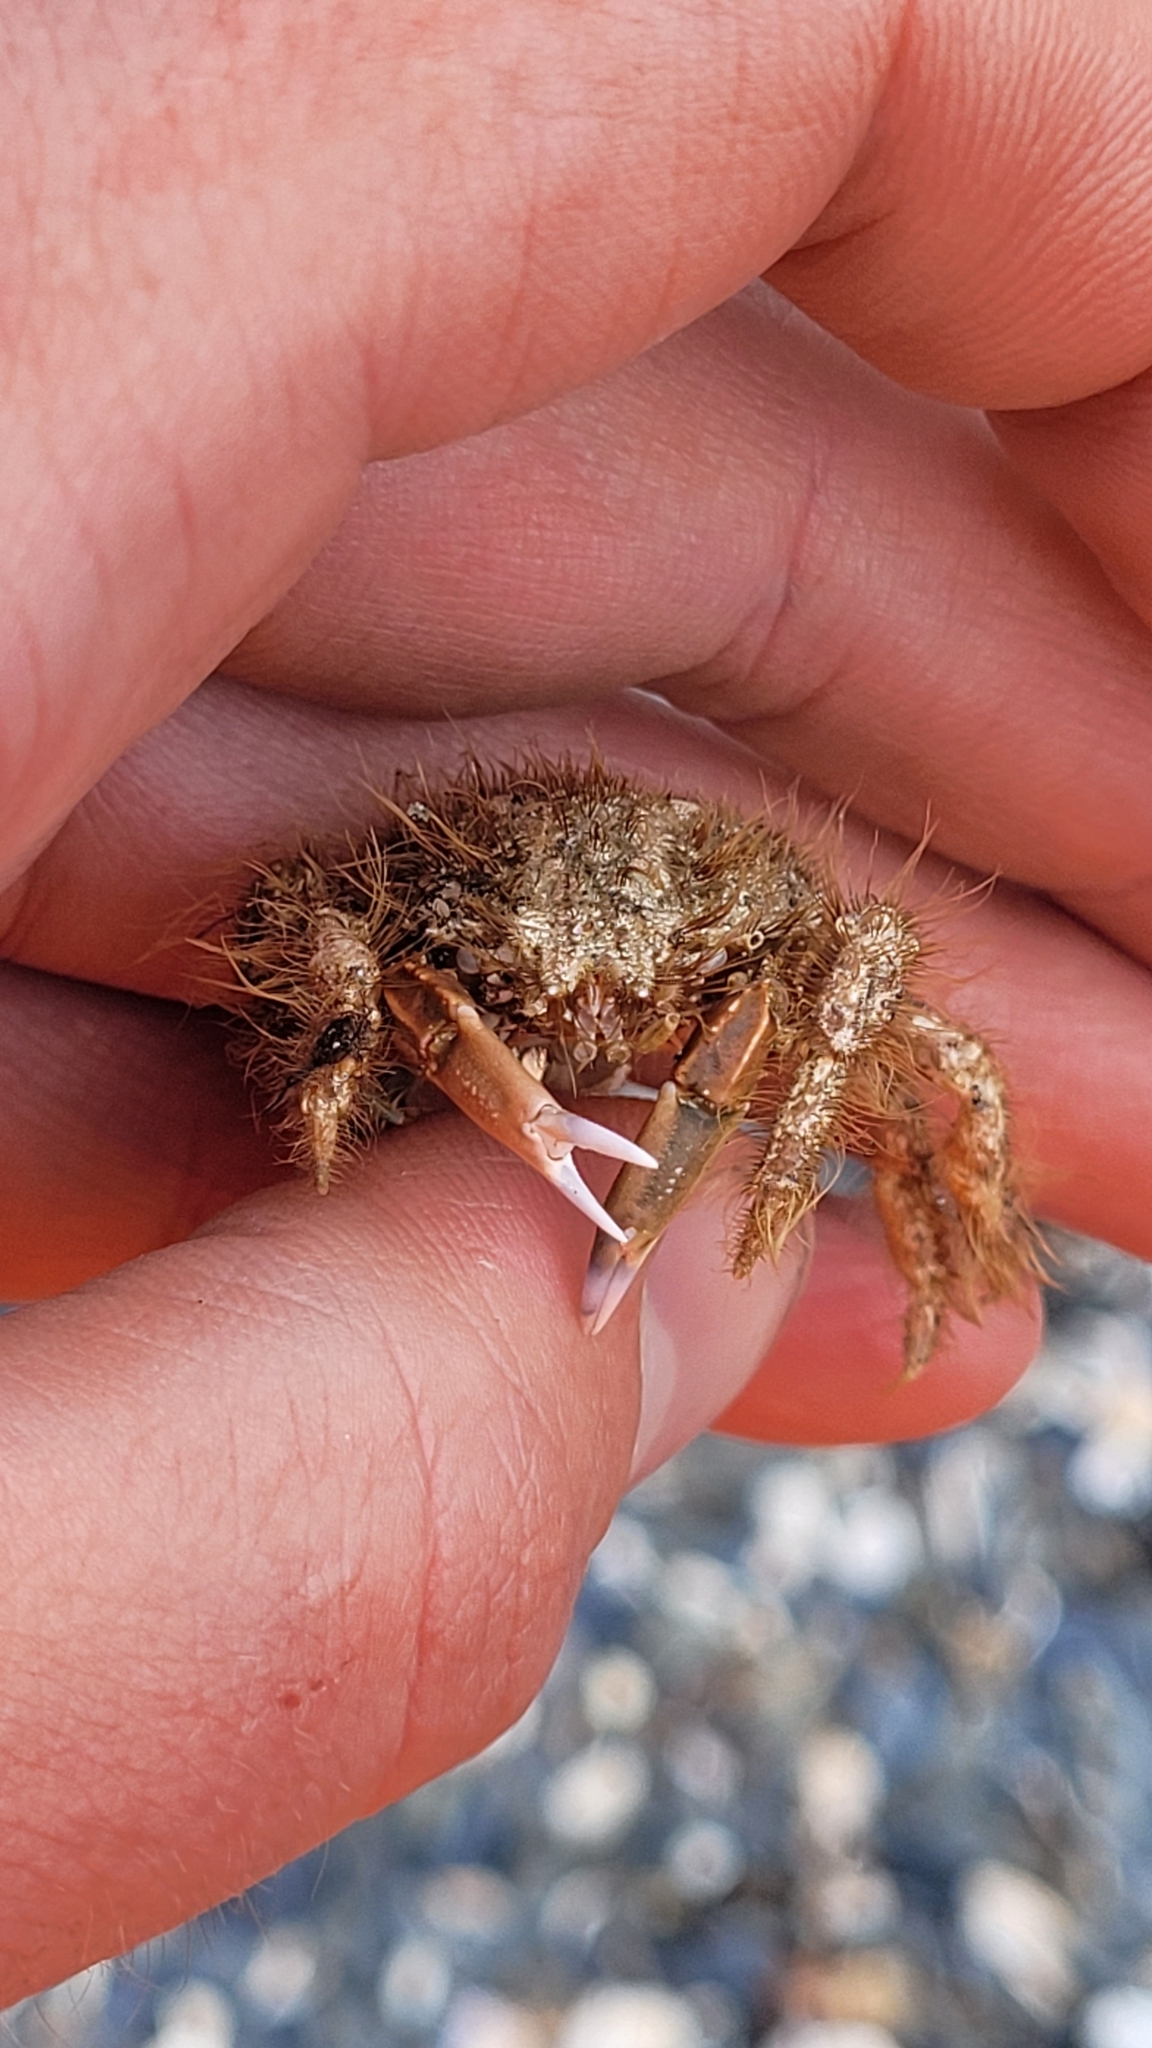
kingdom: Animalia
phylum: Arthropoda
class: Malacostraca
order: Decapoda
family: Majidae
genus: Notomithrax
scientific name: Notomithrax ursus
